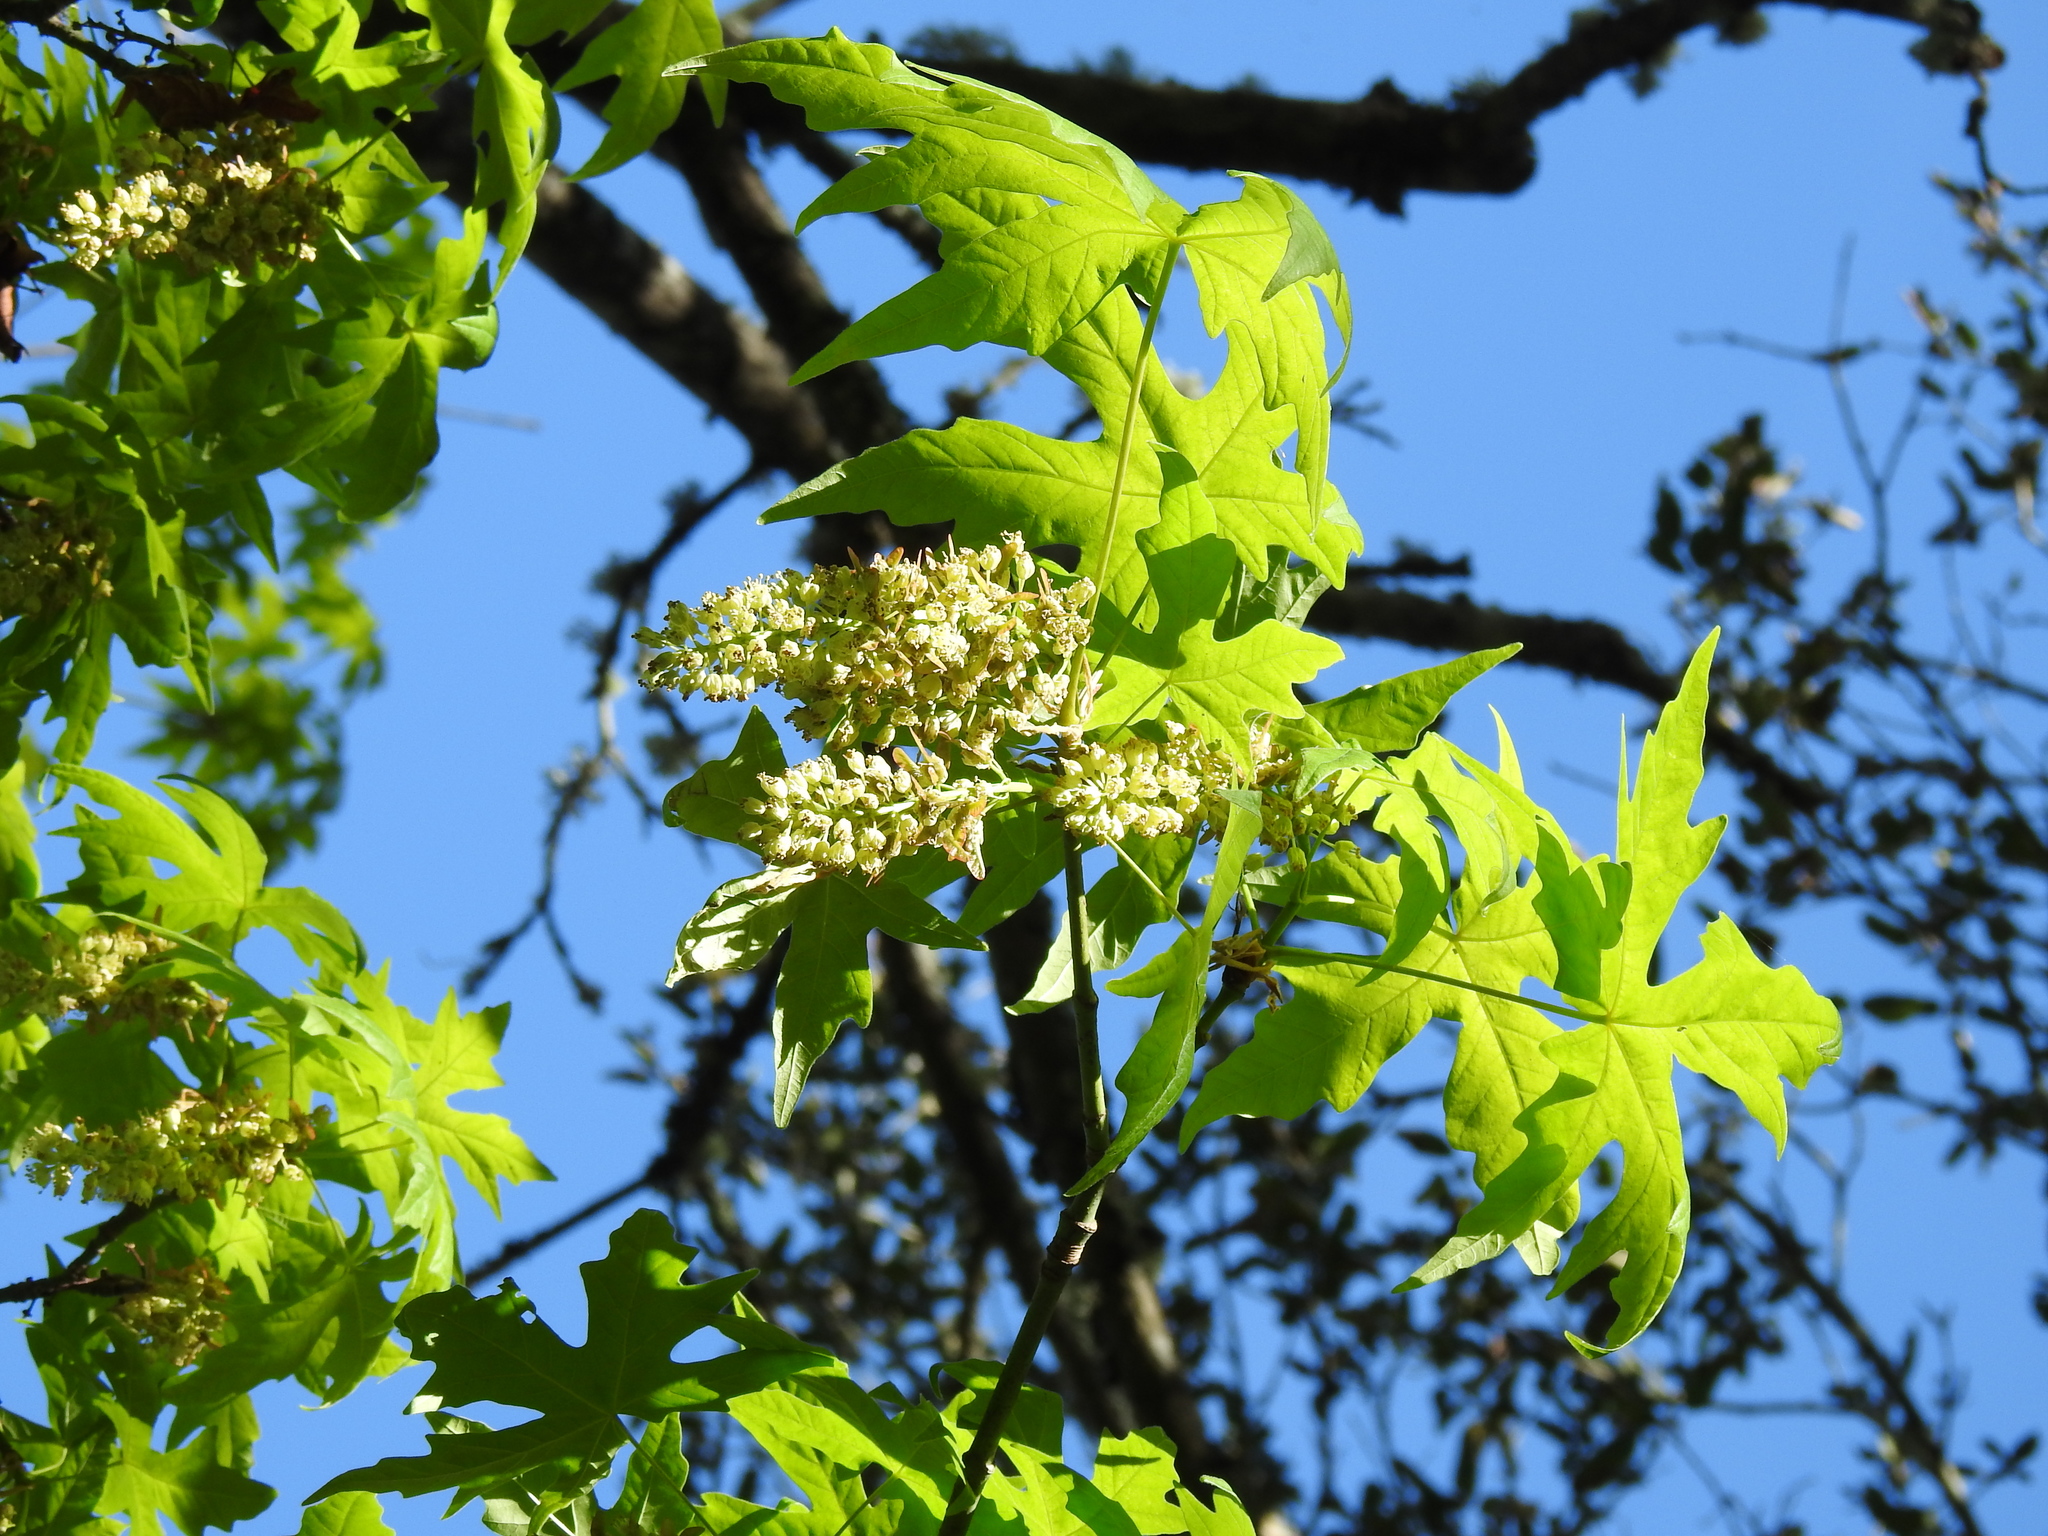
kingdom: Plantae
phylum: Tracheophyta
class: Magnoliopsida
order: Sapindales
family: Sapindaceae
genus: Acer
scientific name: Acer macrophyllum
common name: Oregon maple
